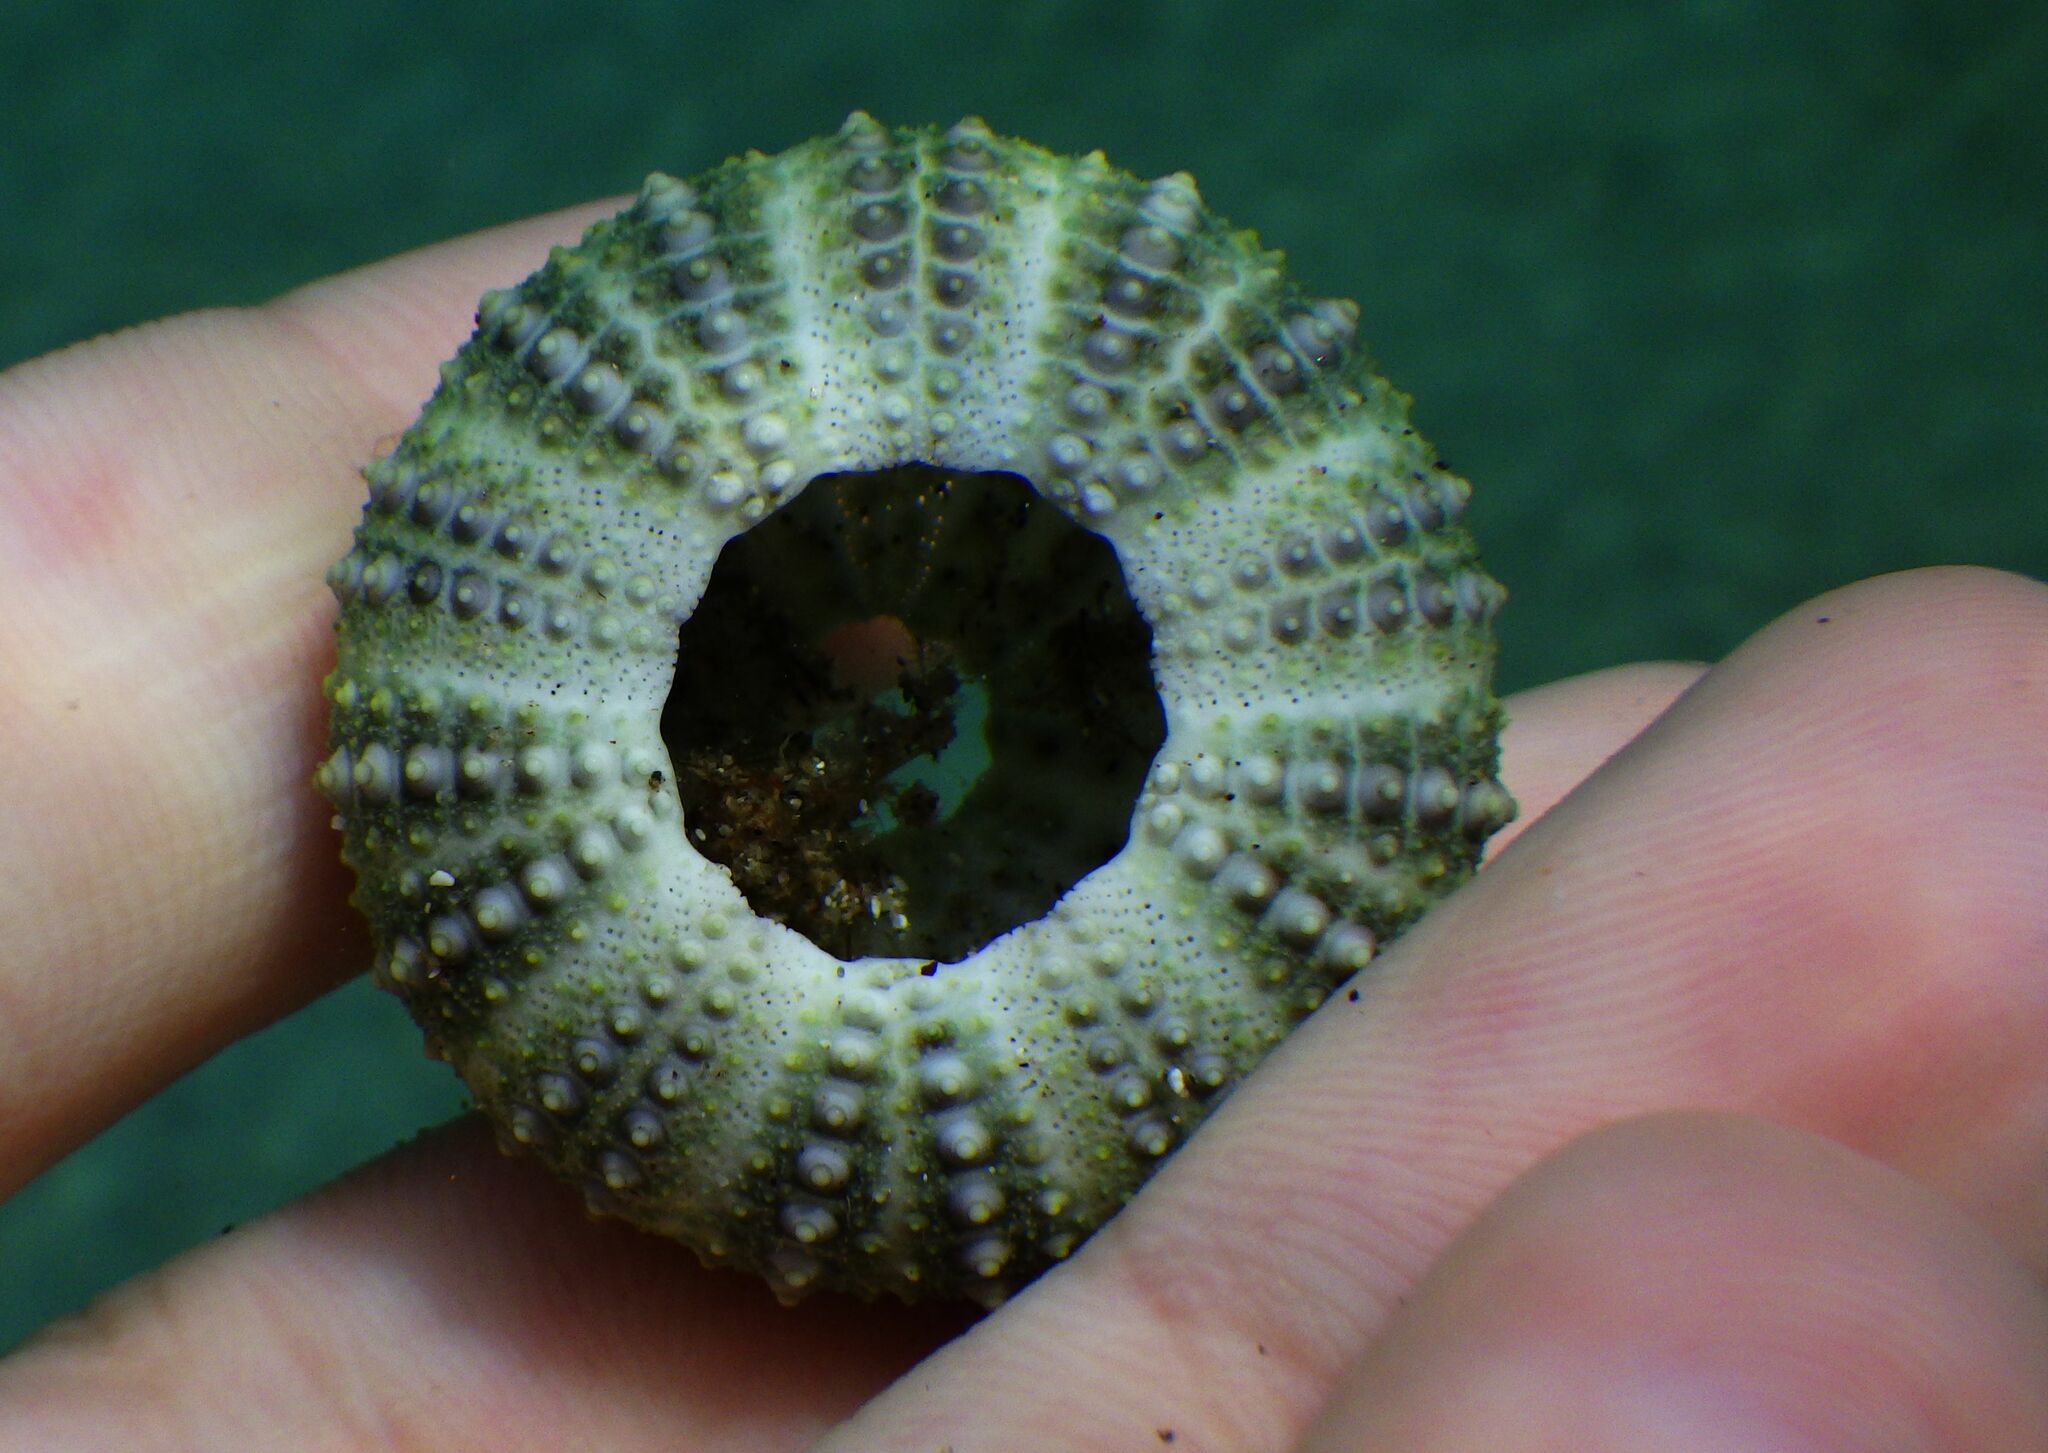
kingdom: Animalia
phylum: Echinodermata
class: Echinoidea
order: Camarodonta
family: Parechinidae
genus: Paracentrotus
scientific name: Paracentrotus lividus
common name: Purple sea urchin
